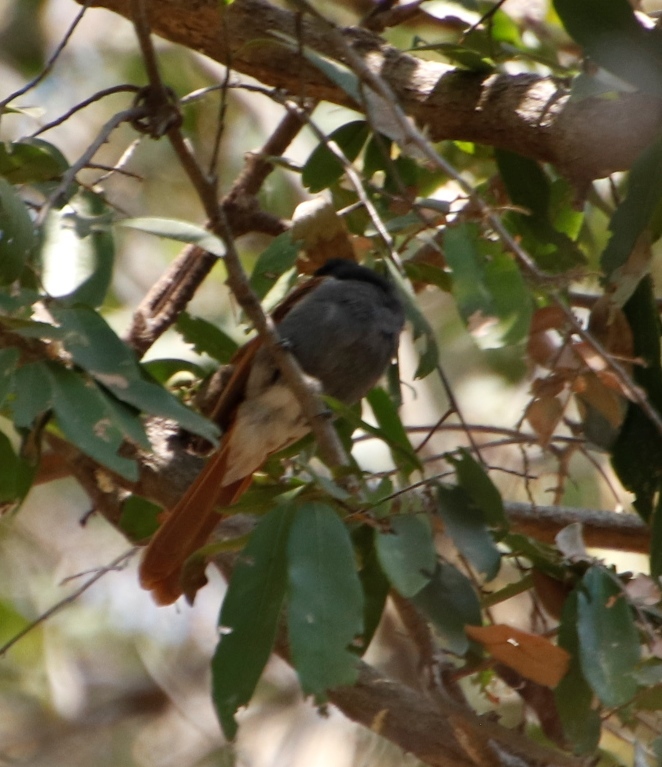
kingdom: Animalia
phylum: Chordata
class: Aves
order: Passeriformes
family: Monarchidae
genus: Terpsiphone
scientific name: Terpsiphone viridis
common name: African paradise flycatcher
